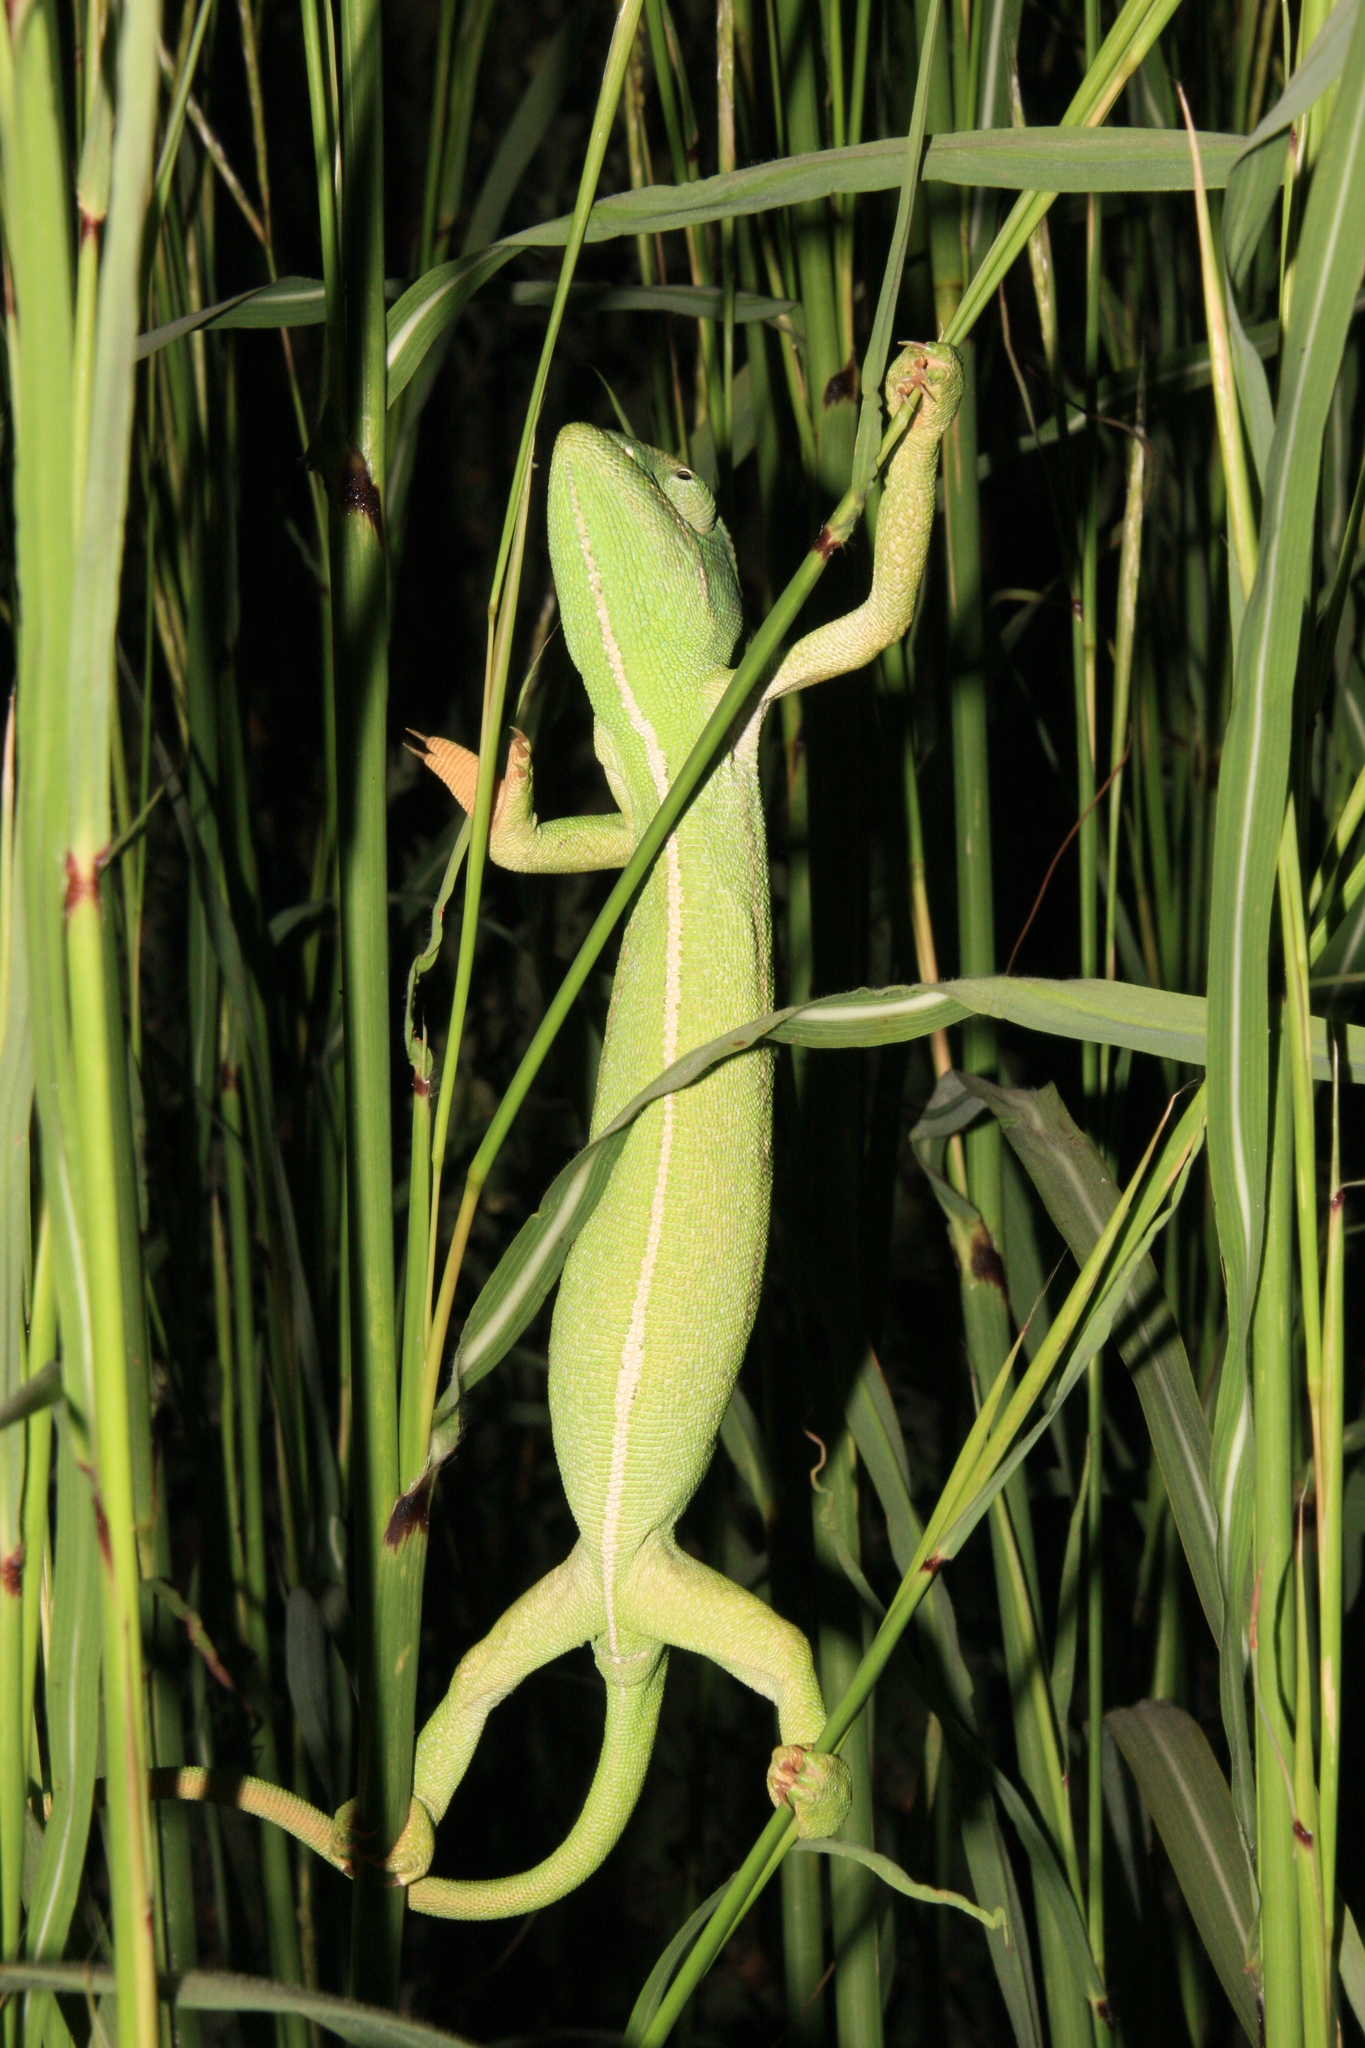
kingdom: Animalia
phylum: Chordata
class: Squamata
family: Chamaeleonidae
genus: Chamaeleo
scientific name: Chamaeleo africanus
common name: African chameleon
